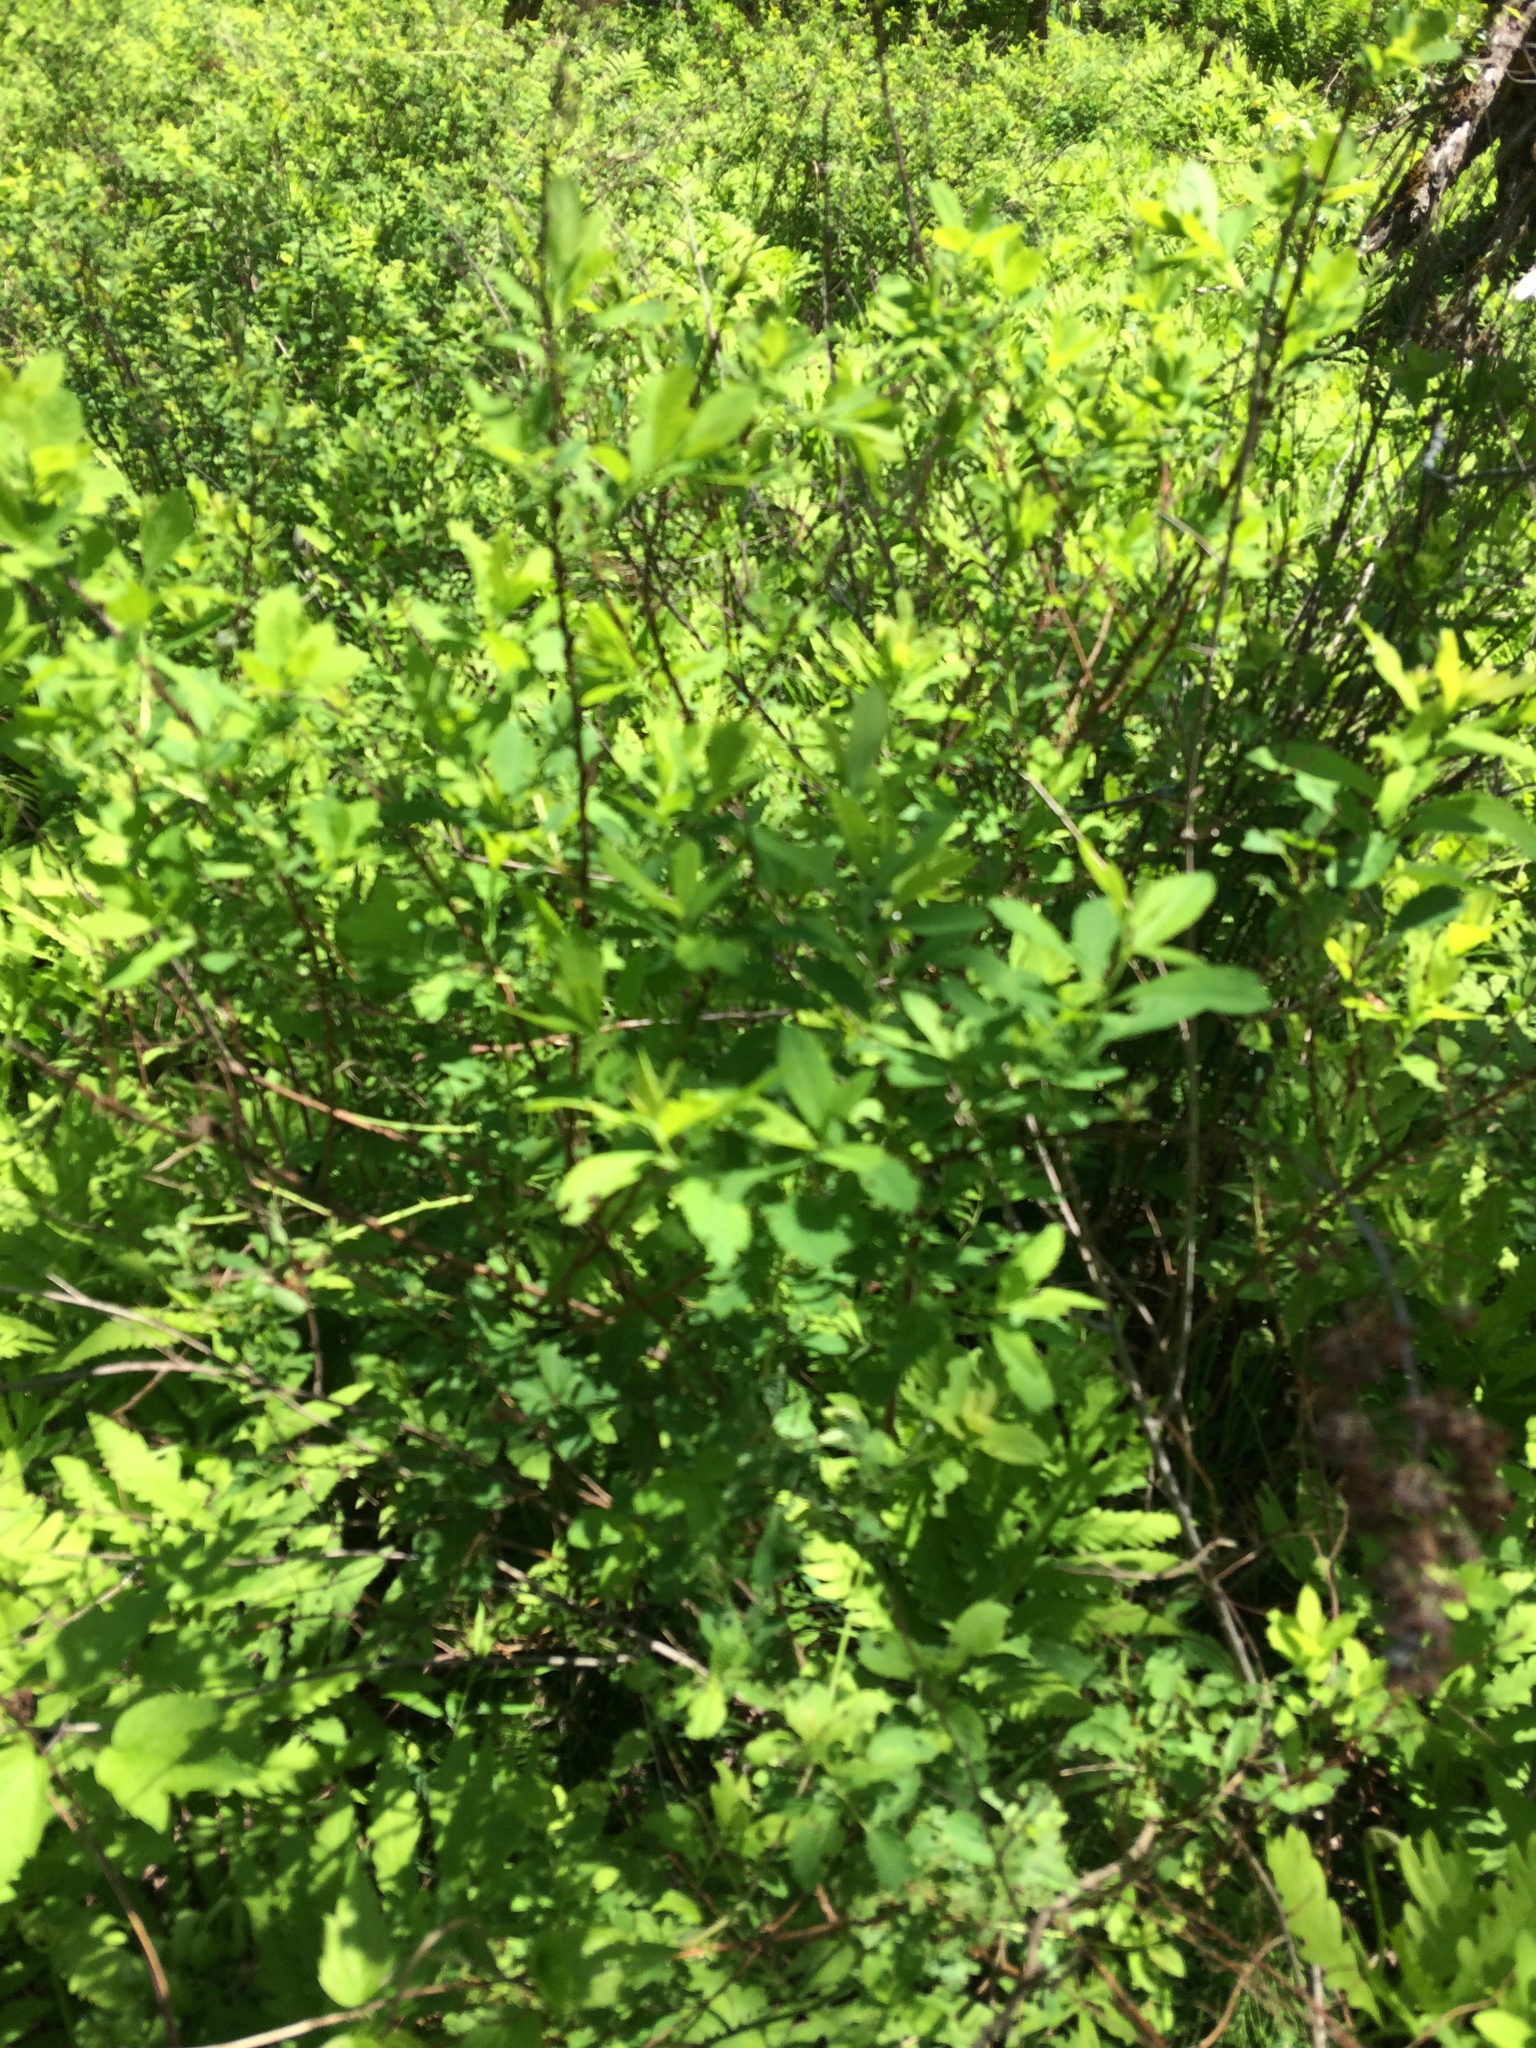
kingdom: Plantae
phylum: Tracheophyta
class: Magnoliopsida
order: Rosales
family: Rosaceae
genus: Spiraea
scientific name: Spiraea alba
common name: Pale bridewort
